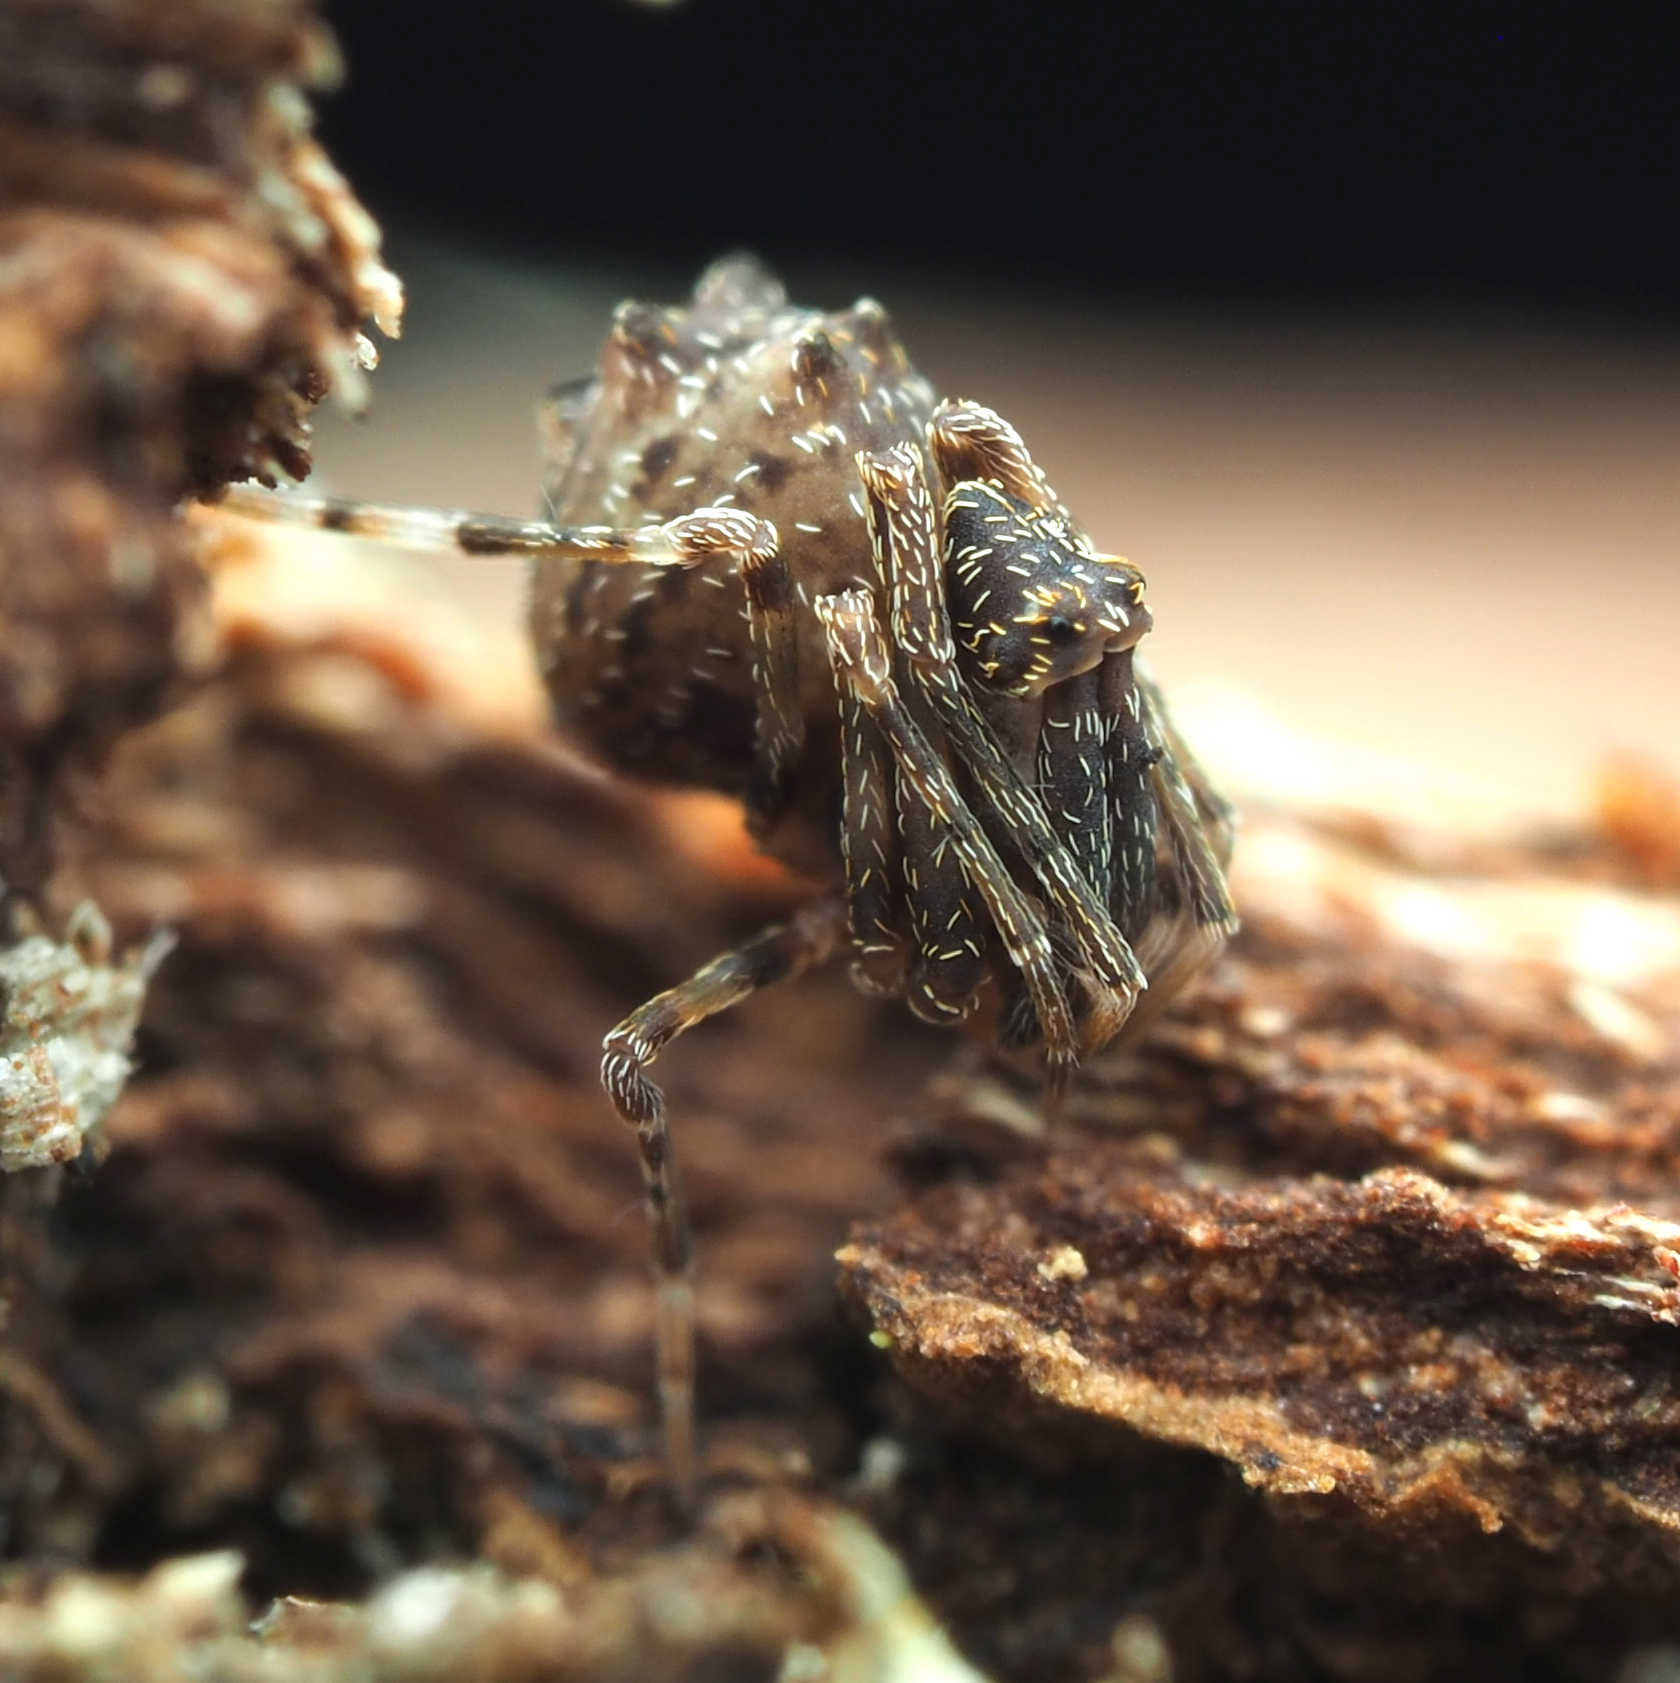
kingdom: Animalia
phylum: Arthropoda
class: Arachnida
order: Araneae
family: Archaeidae
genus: Austrarchaea
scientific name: Austrarchaea raveni
